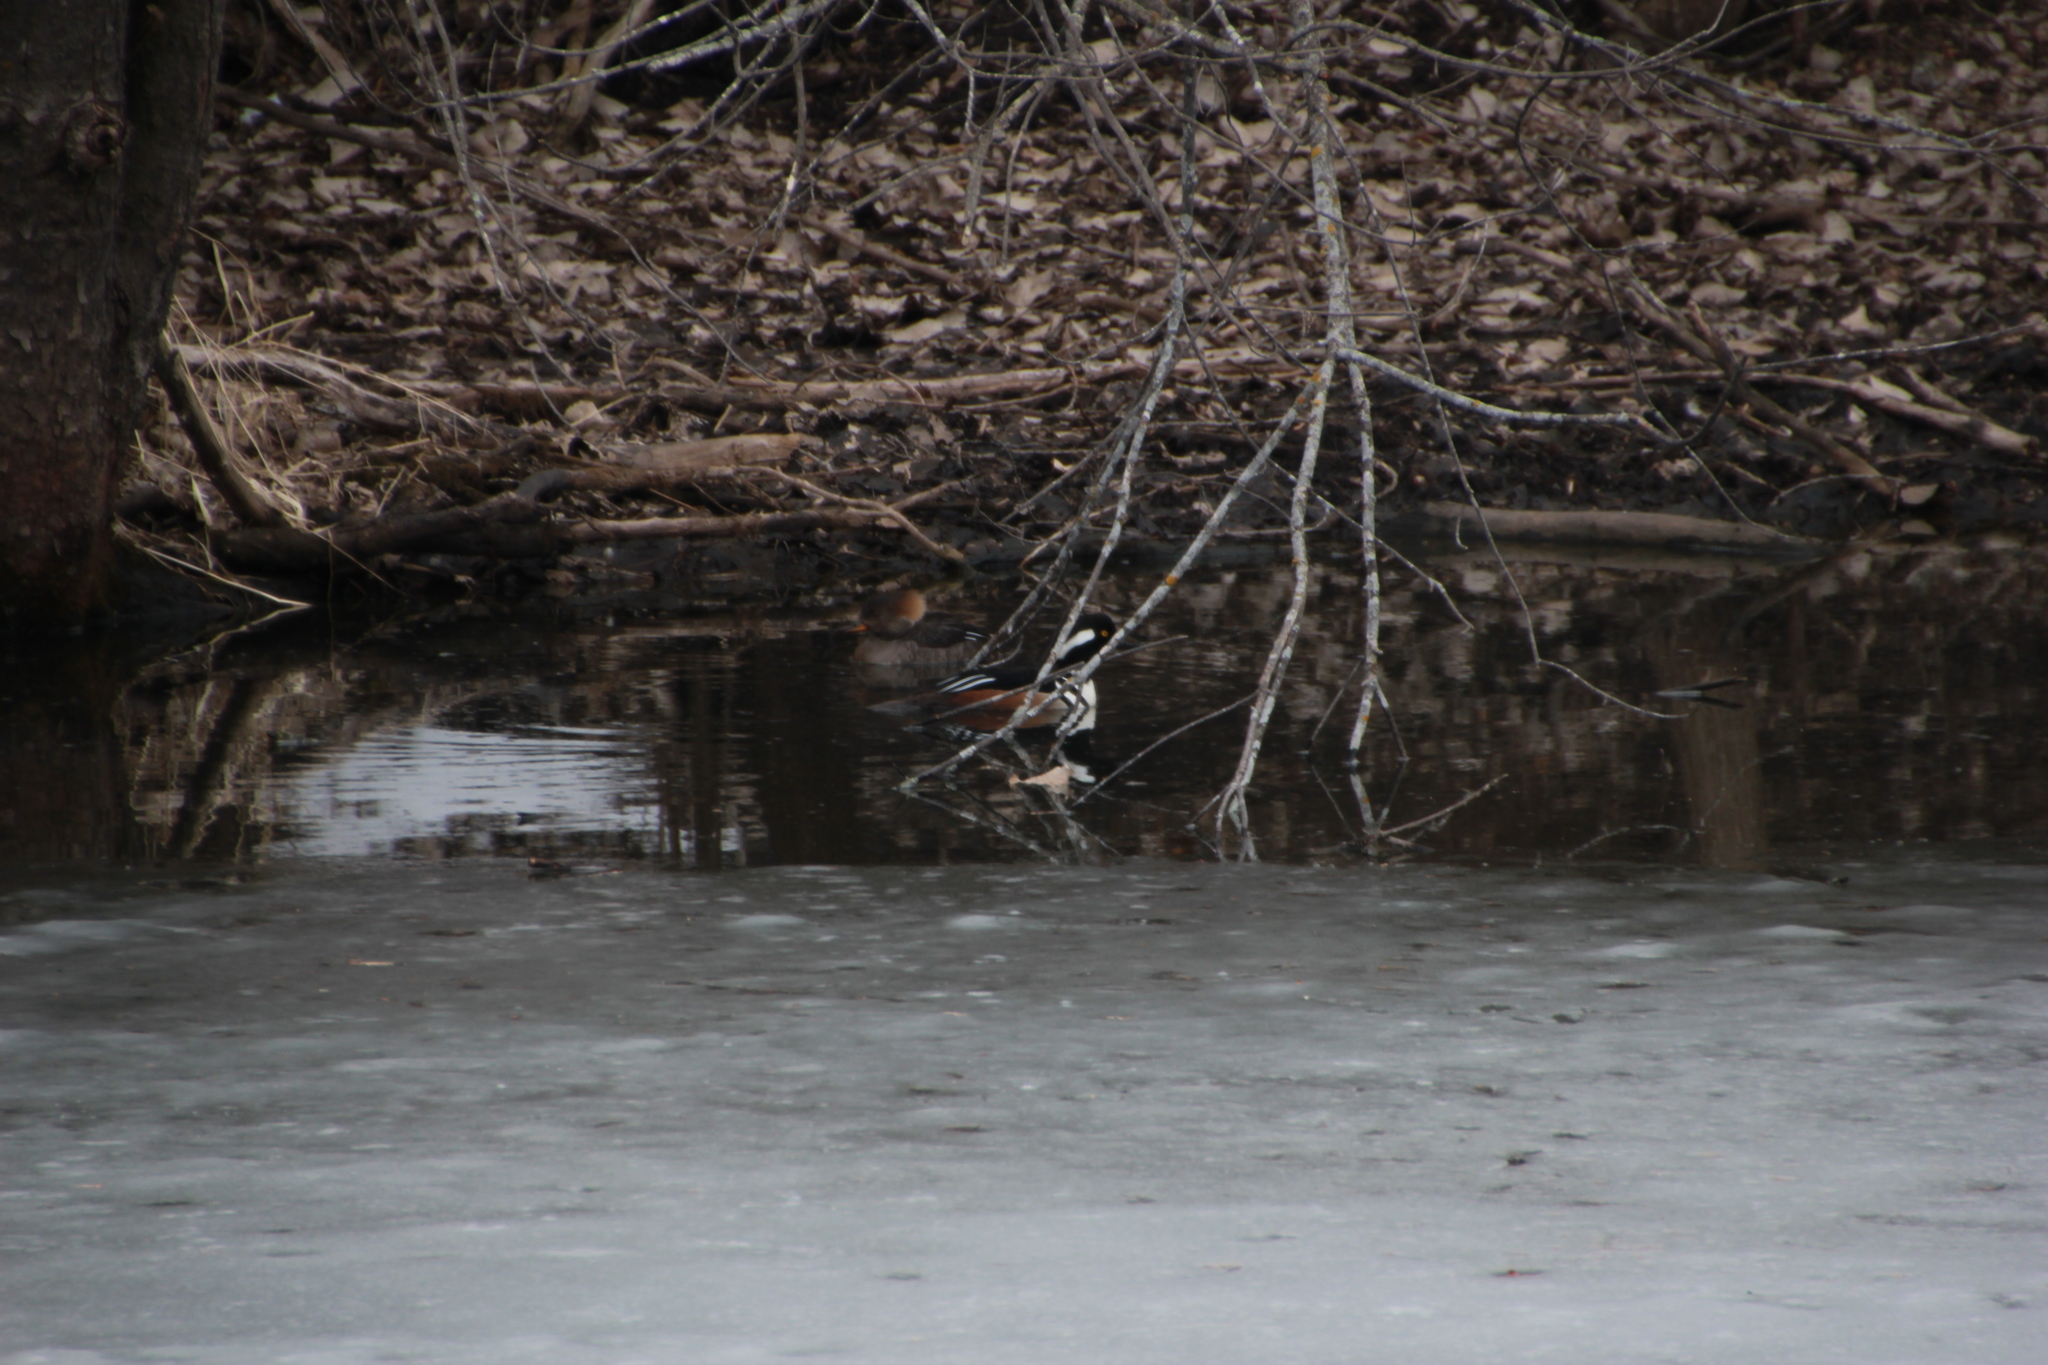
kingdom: Animalia
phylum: Chordata
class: Aves
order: Anseriformes
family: Anatidae
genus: Lophodytes
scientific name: Lophodytes cucullatus
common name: Hooded merganser
